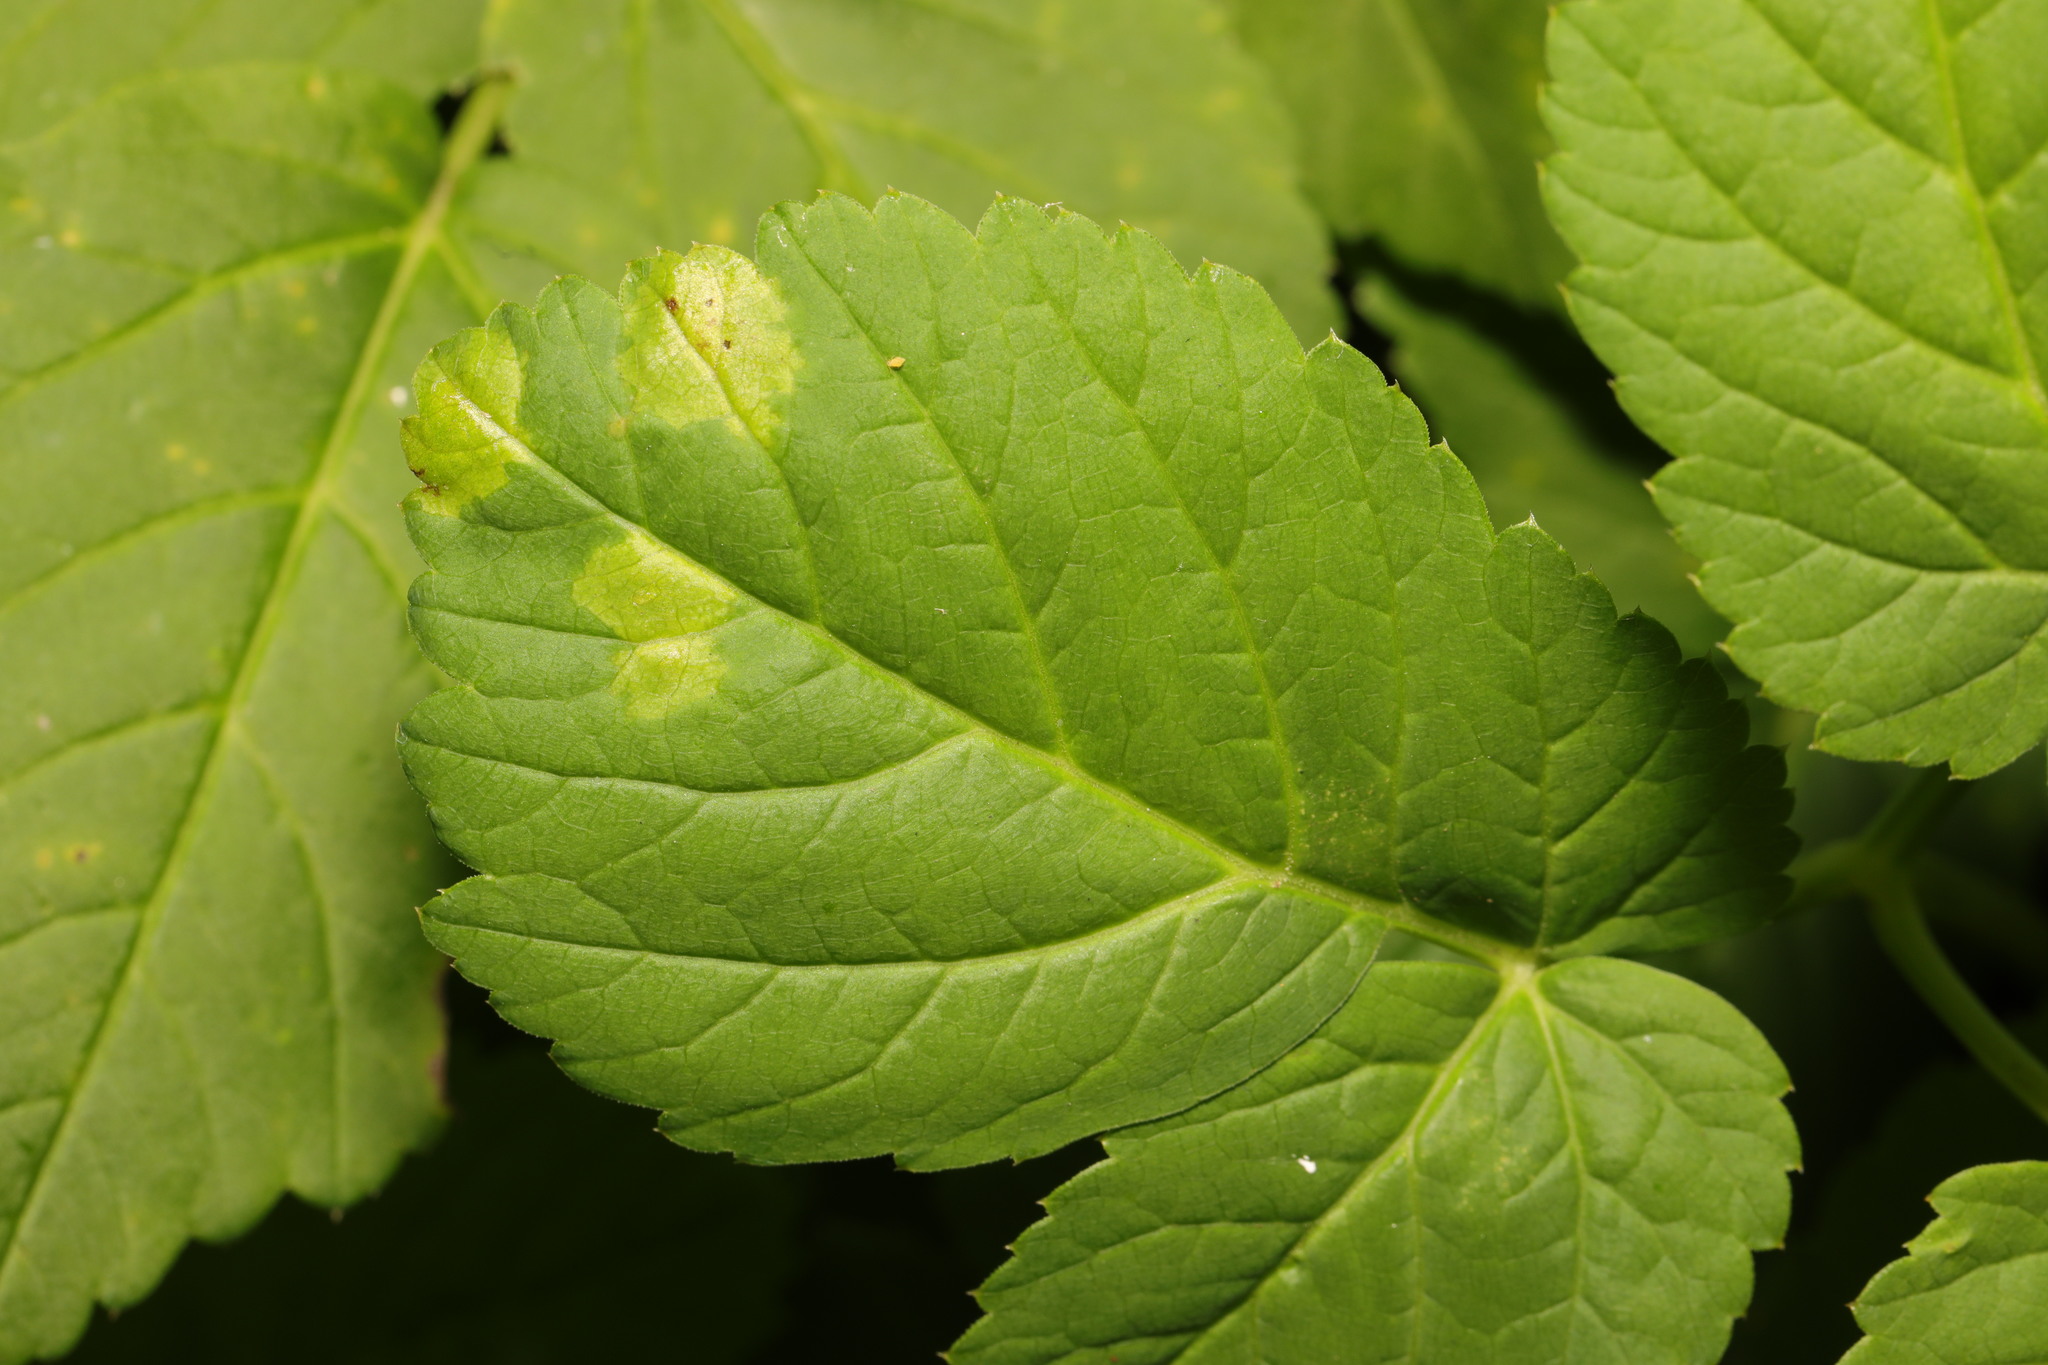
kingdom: Chromista
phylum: Oomycota
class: Peronosporea
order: Peronosporales
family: Peronosporaceae
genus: Peronospora
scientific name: Peronospora crustosa
